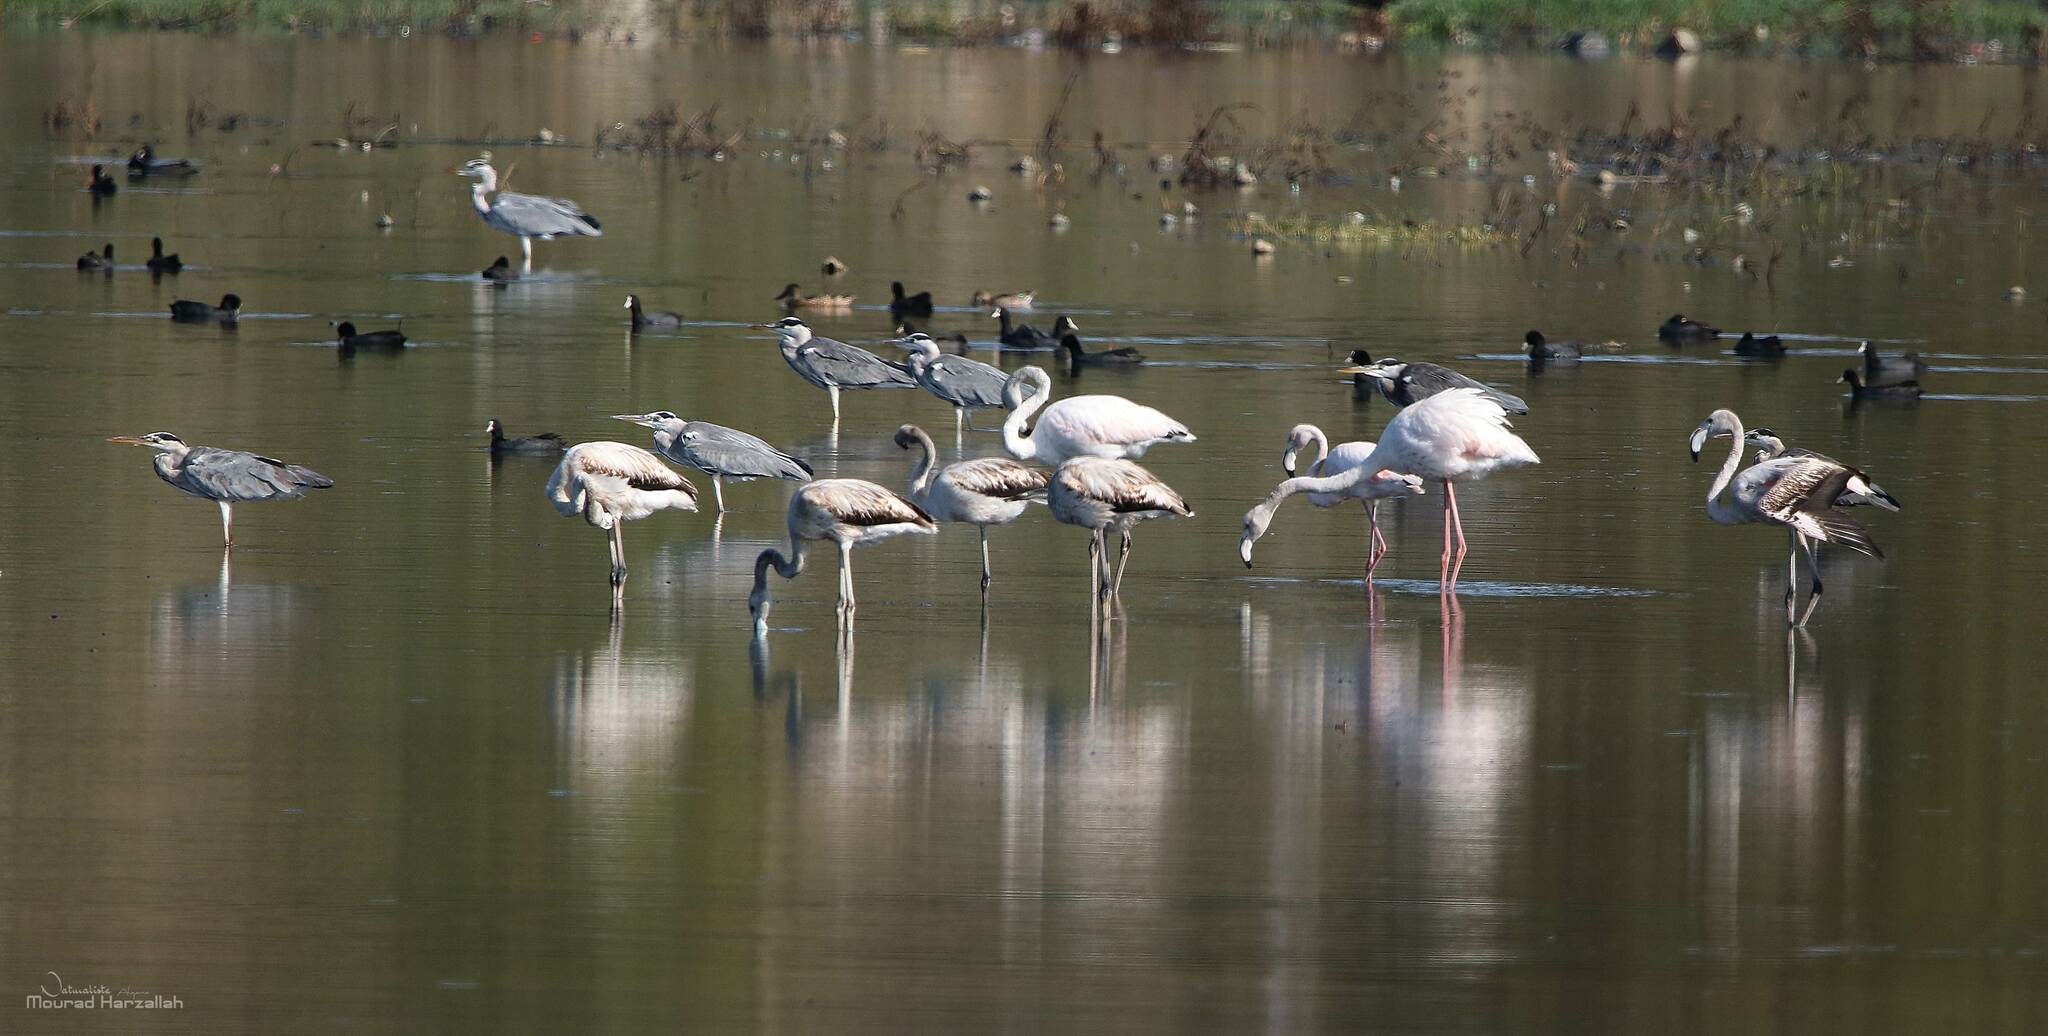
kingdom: Animalia
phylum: Chordata
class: Aves
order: Phoenicopteriformes
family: Phoenicopteridae
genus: Phoenicopterus
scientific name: Phoenicopterus roseus
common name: Greater flamingo
